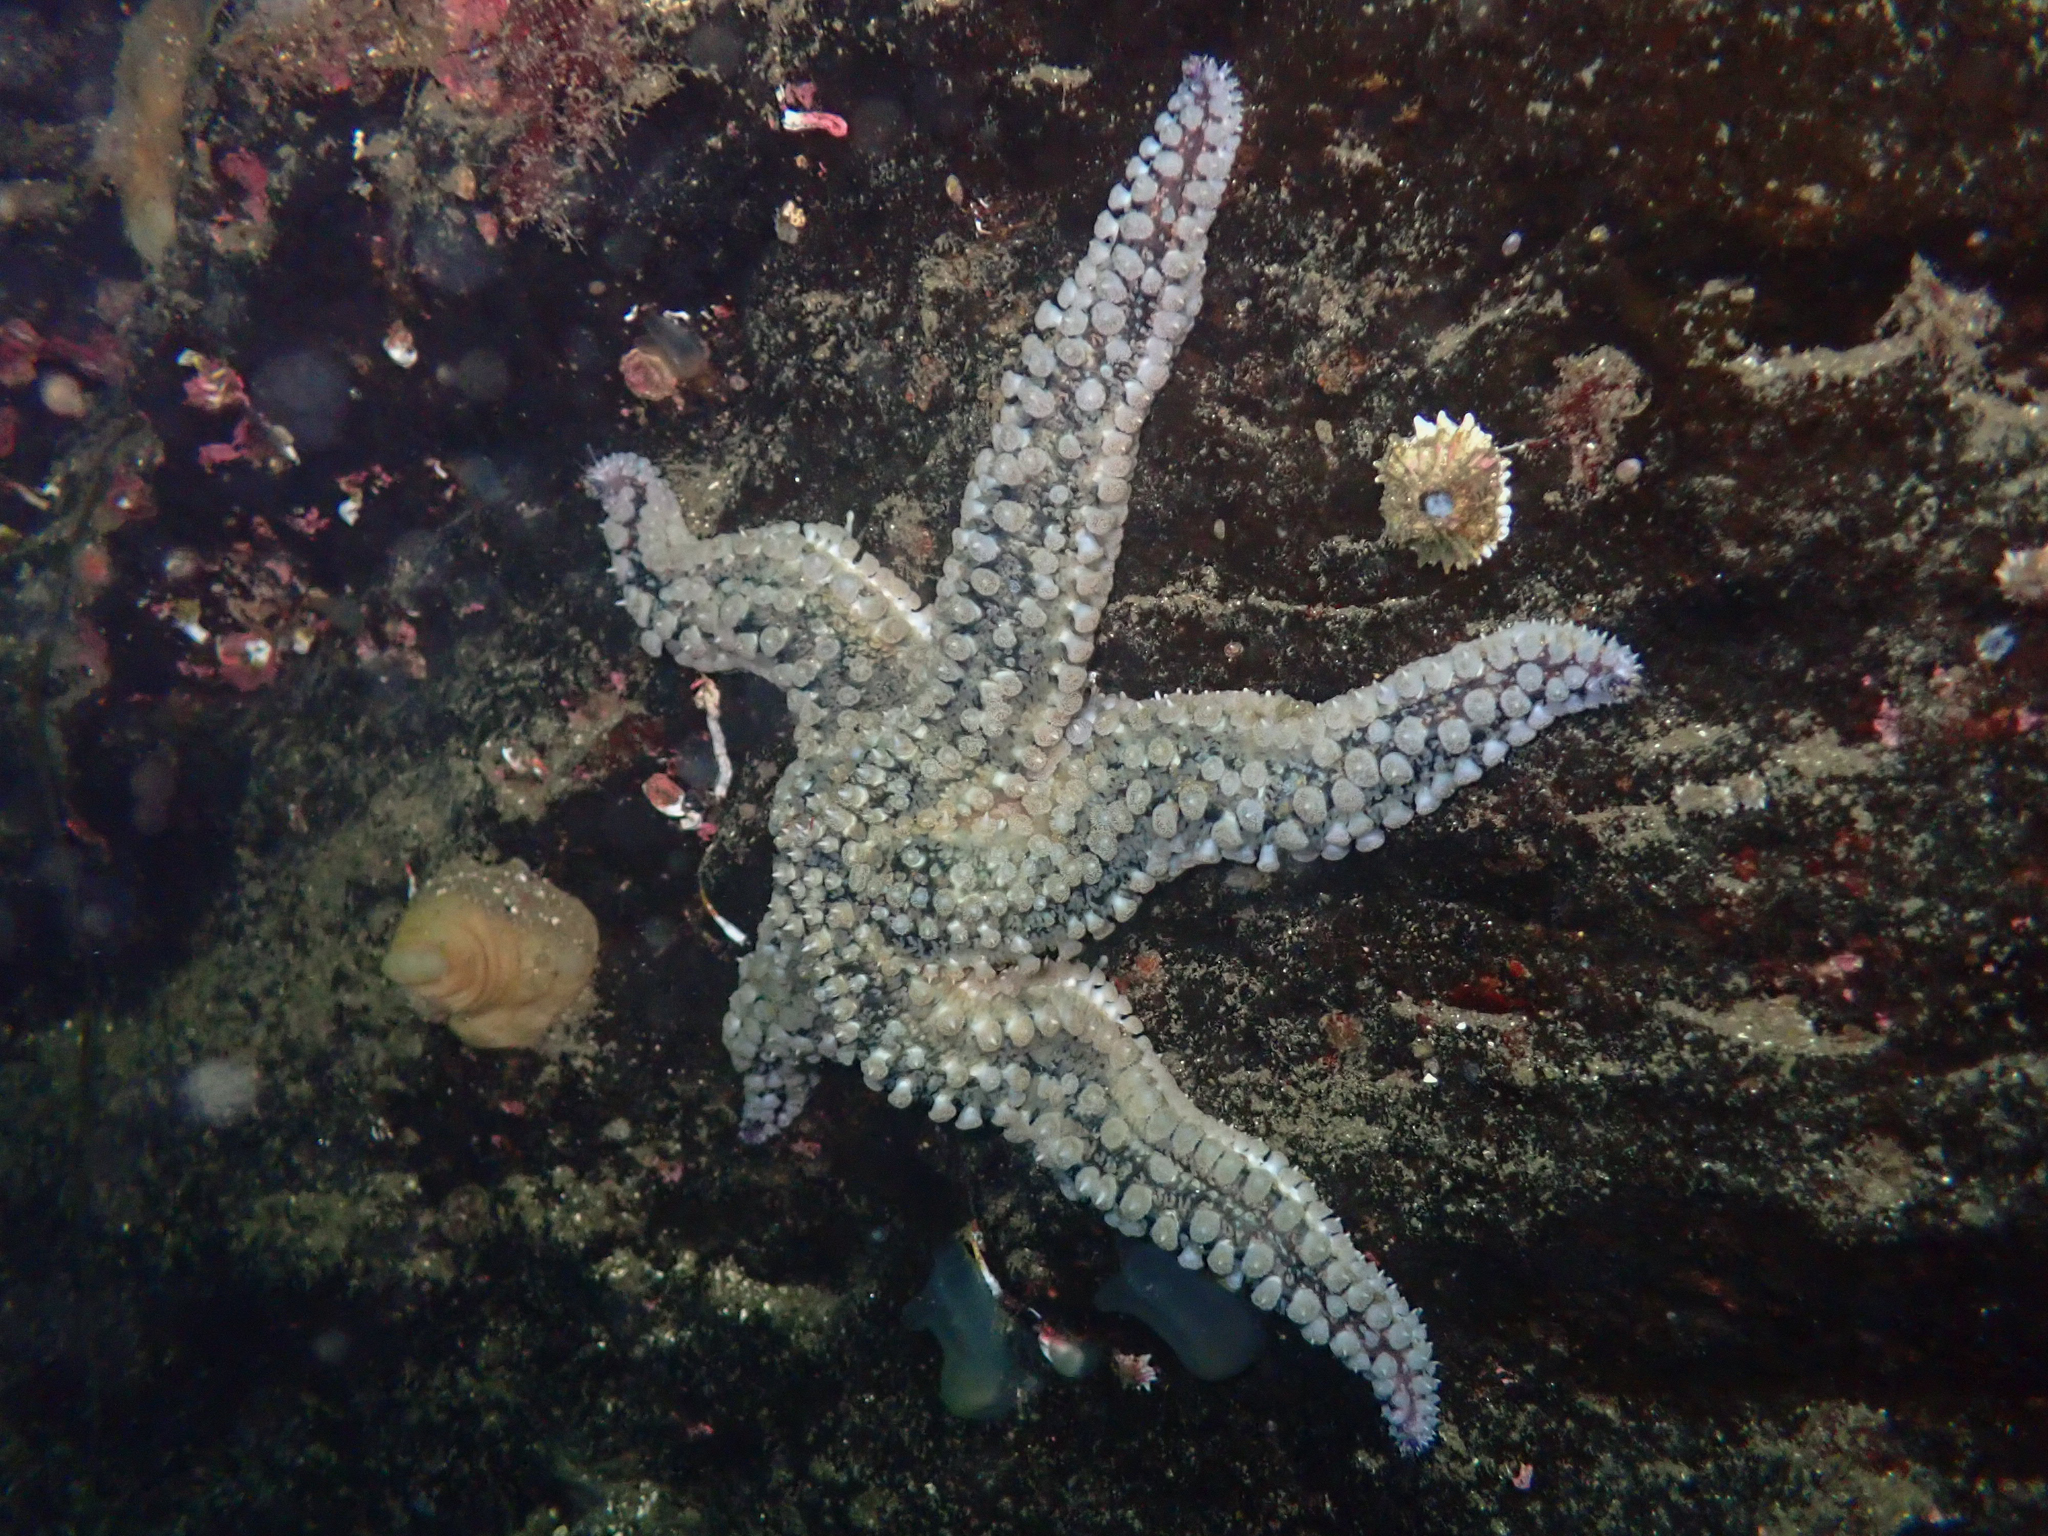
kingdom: Animalia
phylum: Echinodermata
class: Asteroidea
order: Forcipulatida
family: Asteriidae
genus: Marthasterias
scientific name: Marthasterias glacialis
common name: Spiny starfish
